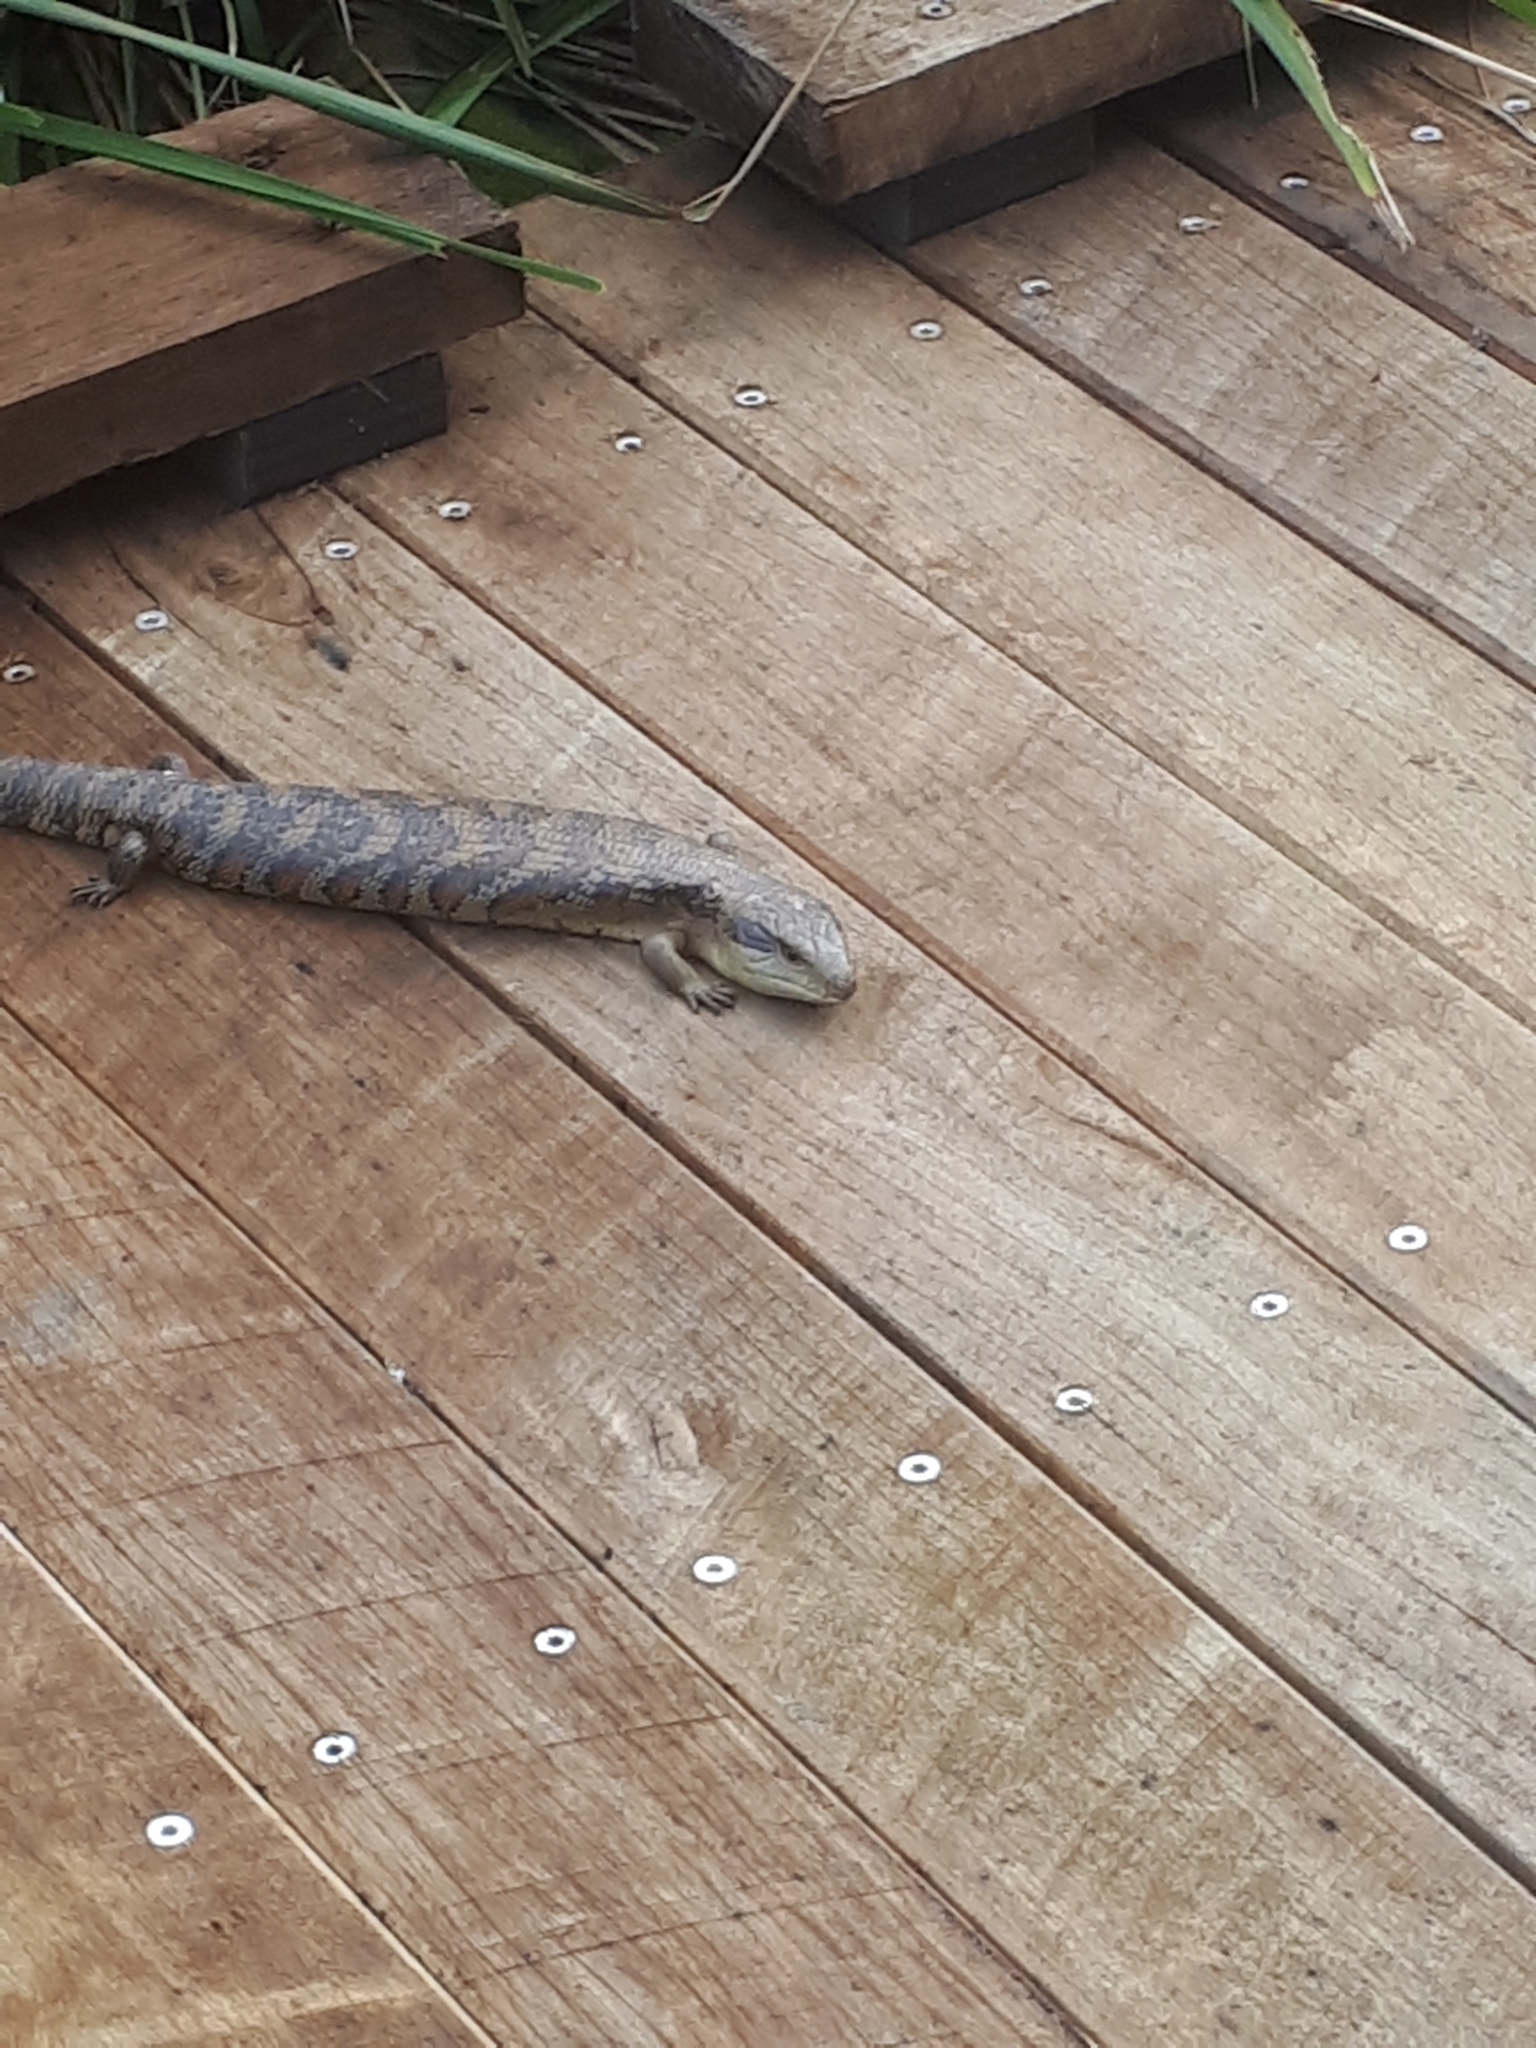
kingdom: Animalia
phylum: Chordata
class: Squamata
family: Scincidae
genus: Tiliqua
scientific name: Tiliqua scincoides
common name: Common bluetongue
